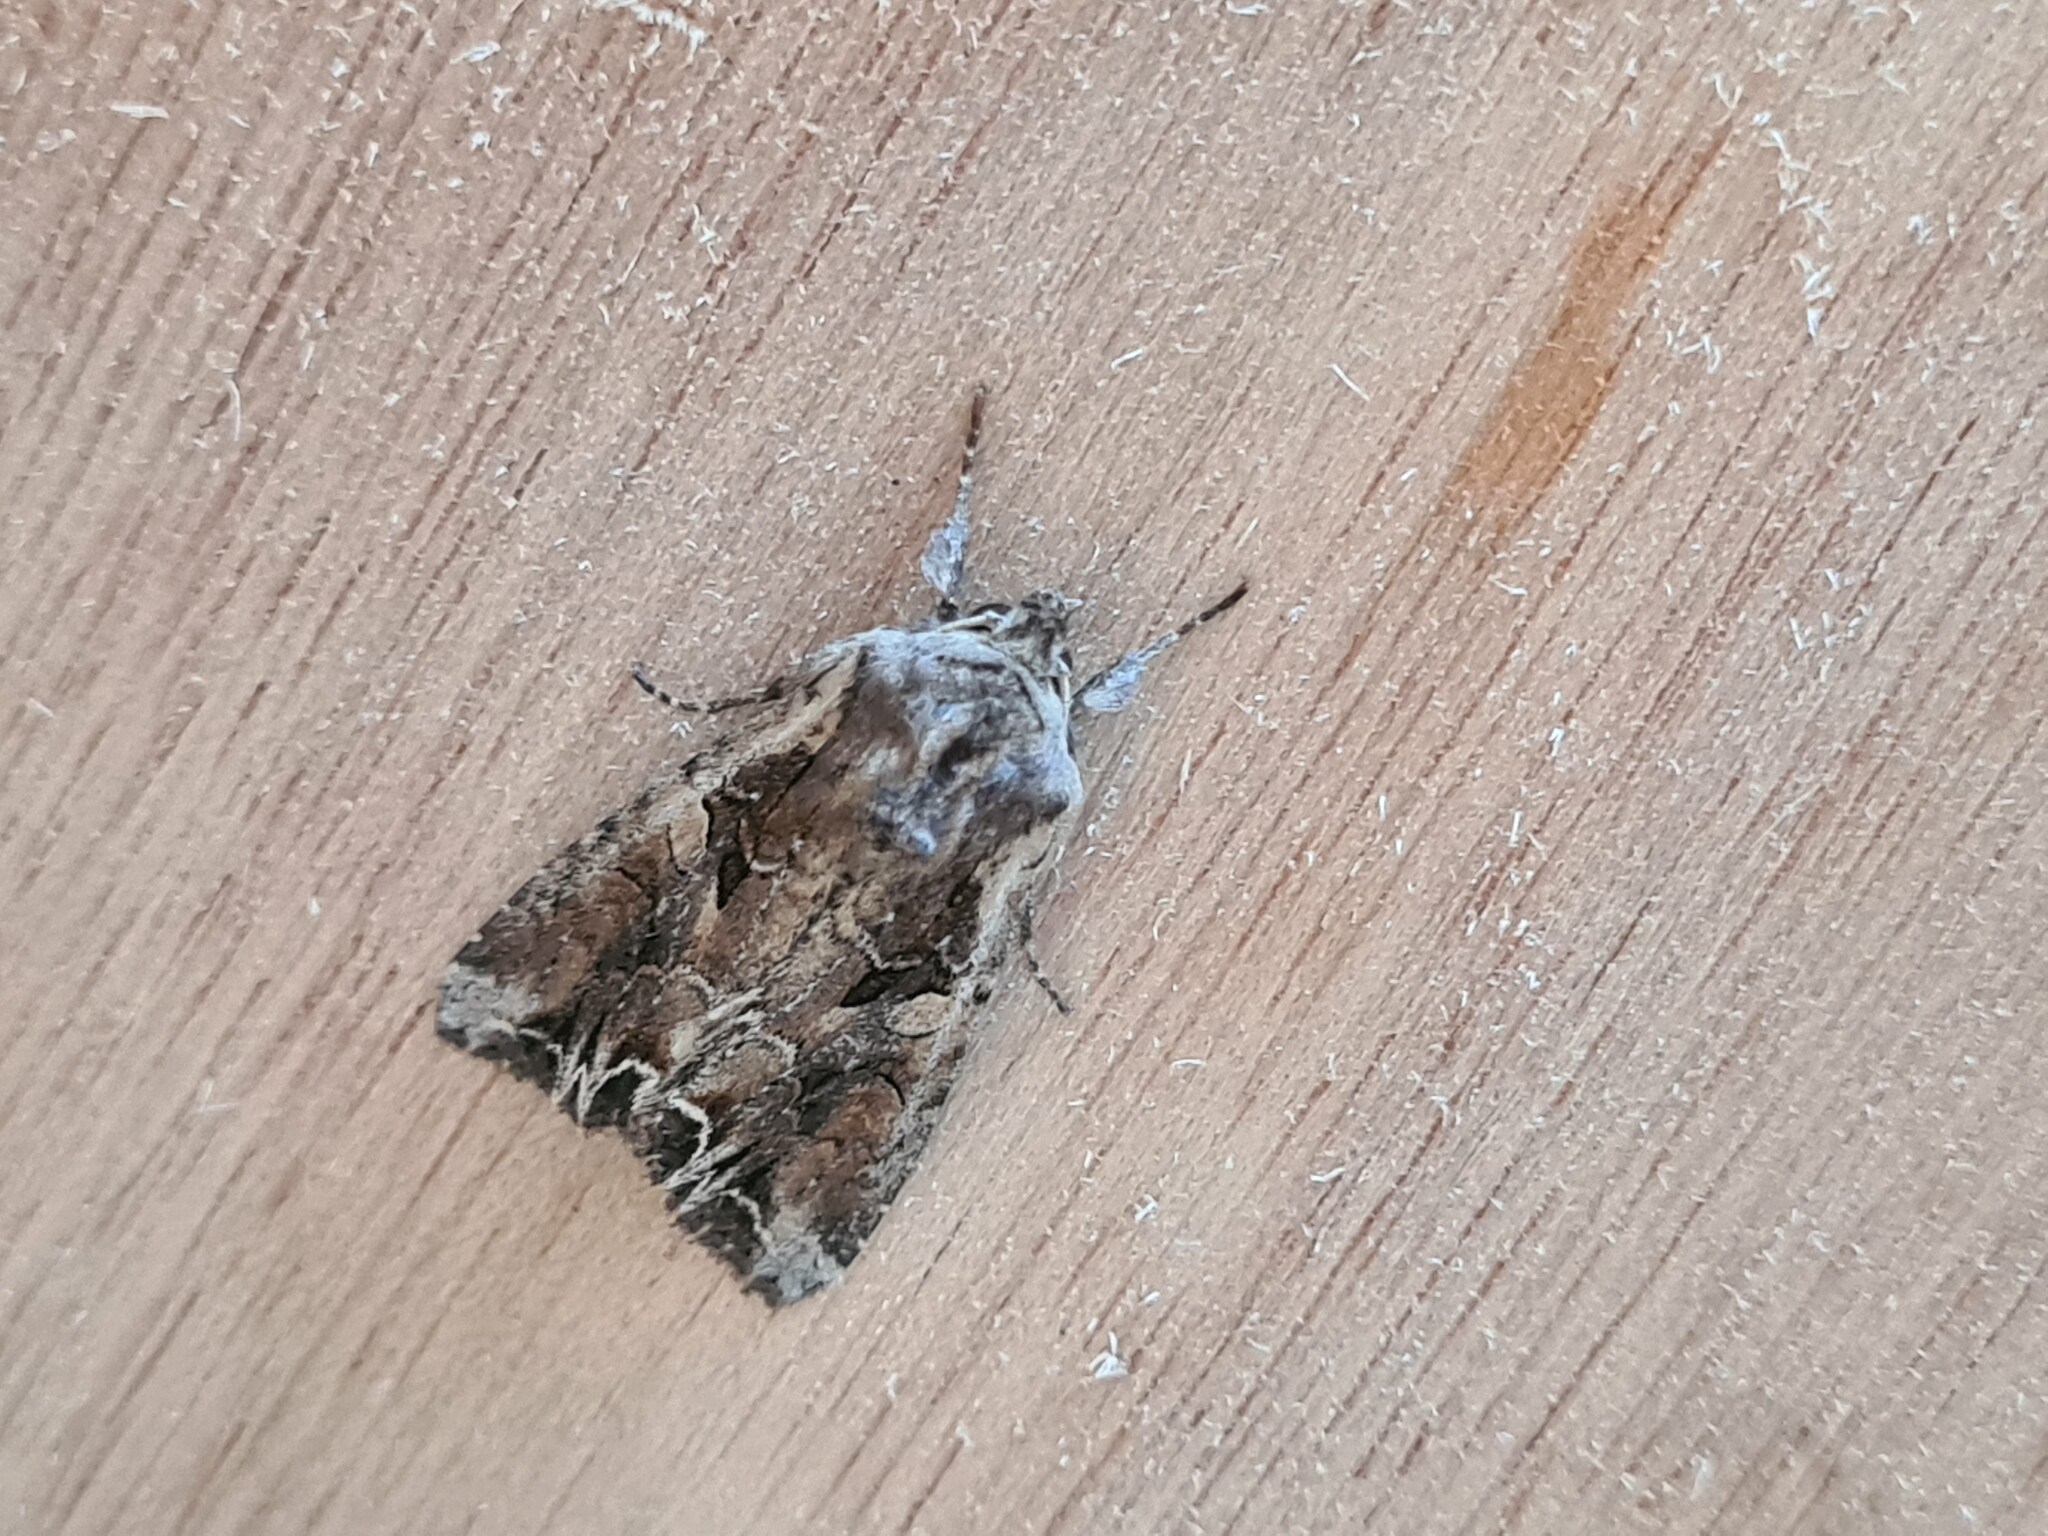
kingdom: Animalia
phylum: Arthropoda
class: Insecta
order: Lepidoptera
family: Noctuidae
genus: Lacanobia
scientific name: Lacanobia suasa
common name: Dog's tooth
